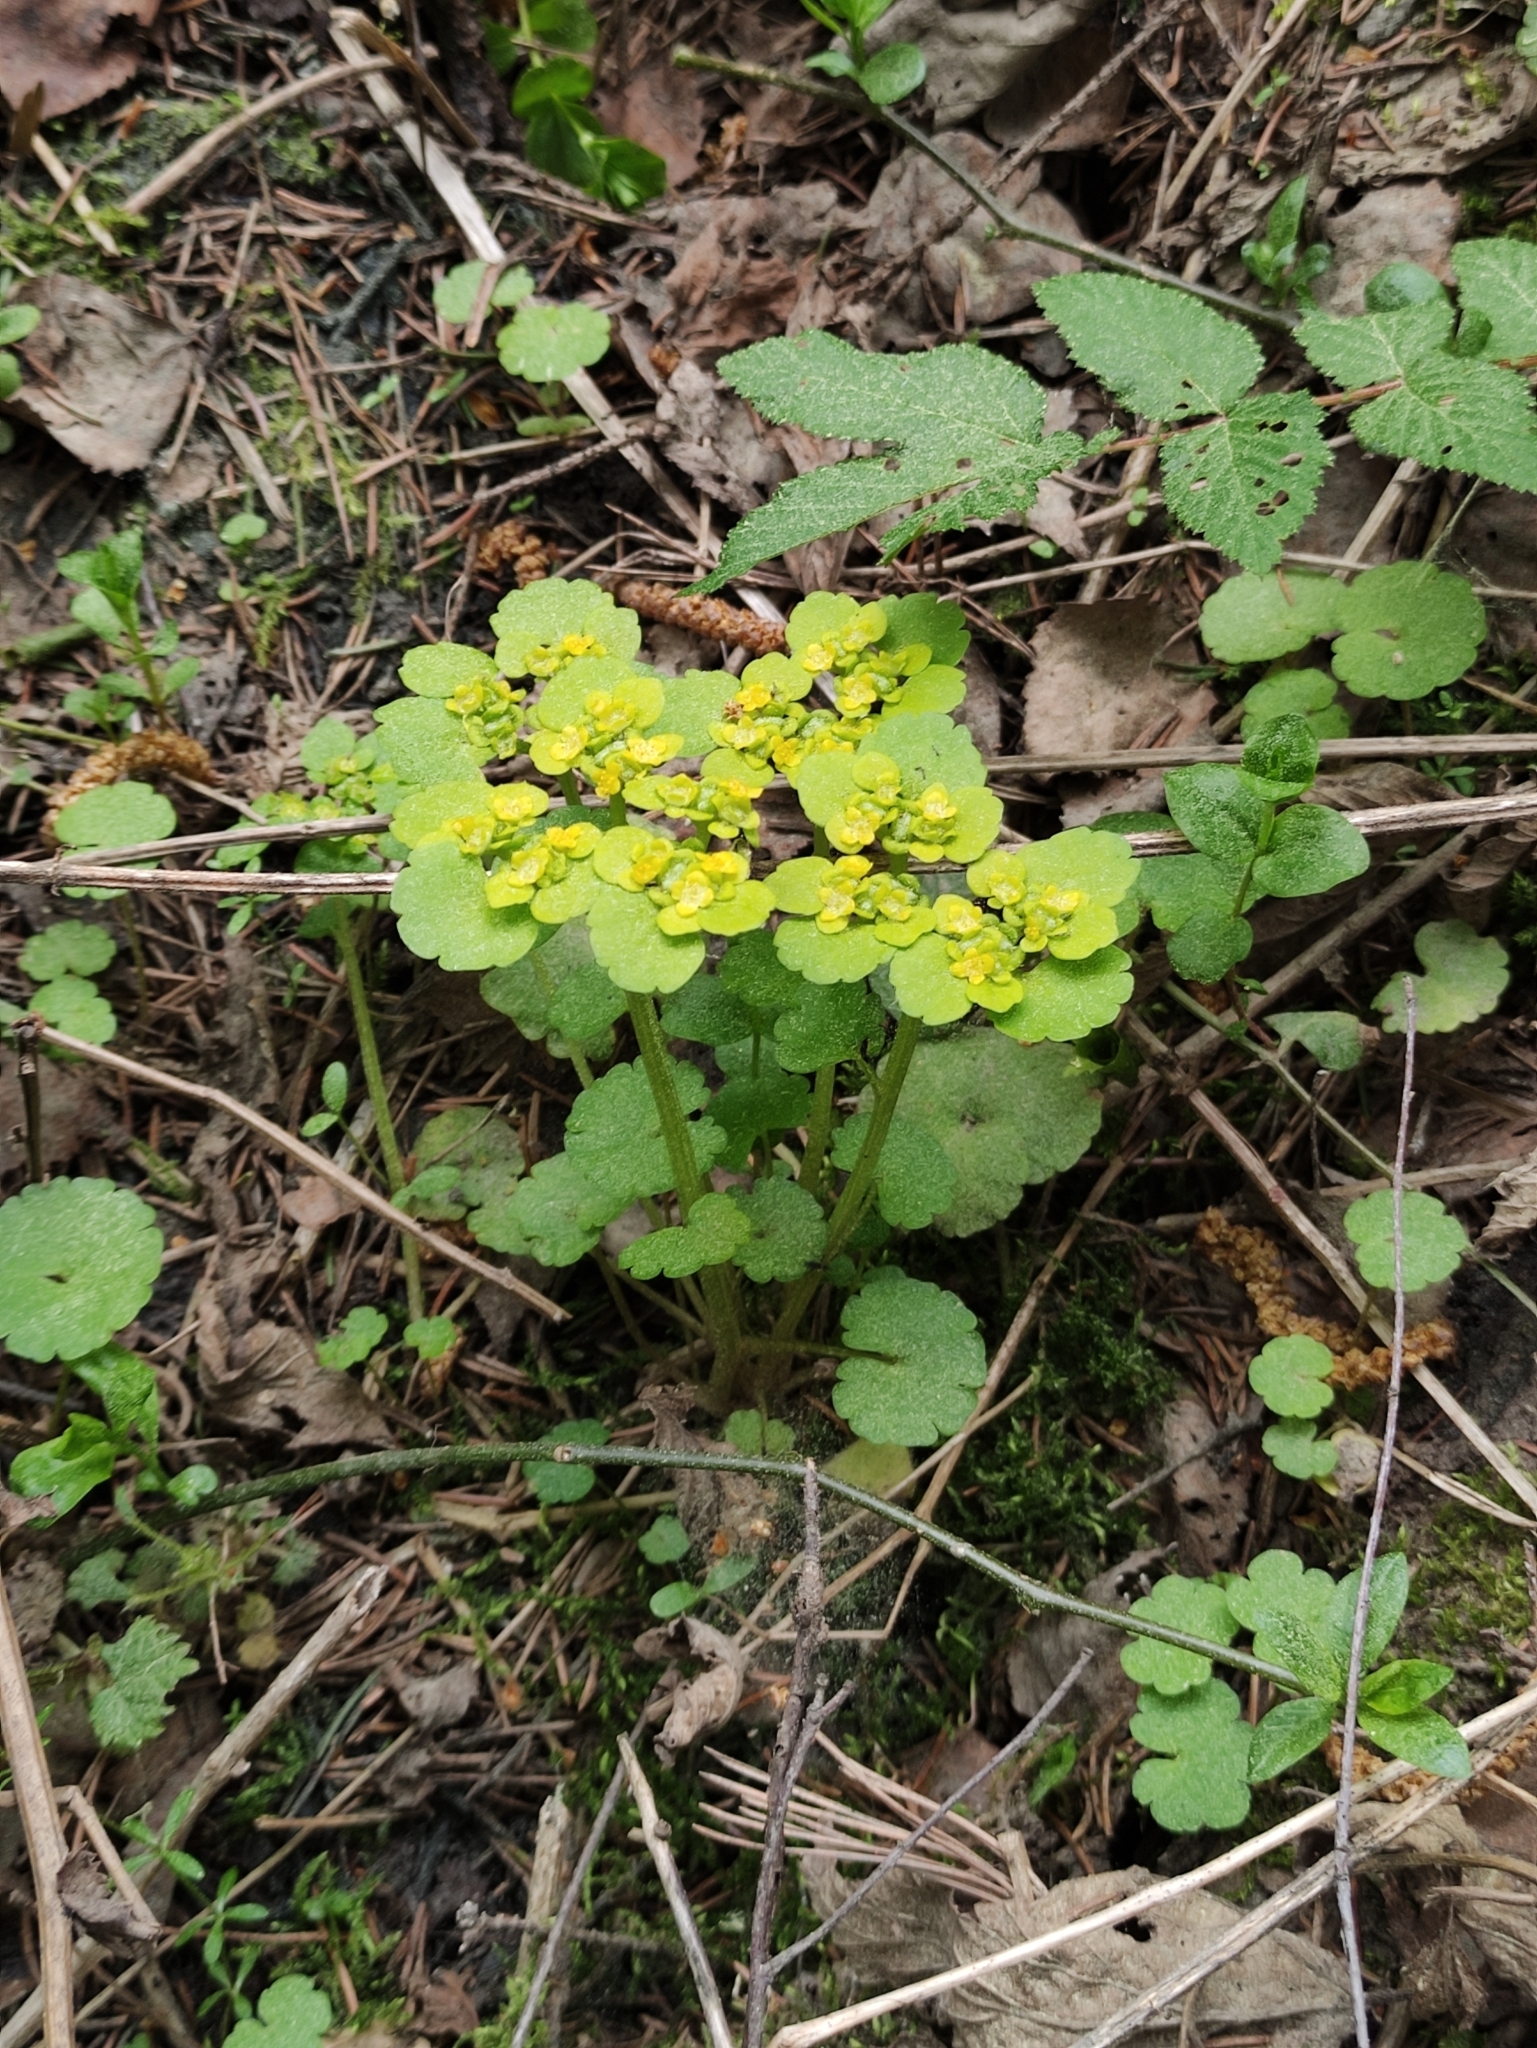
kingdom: Plantae
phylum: Tracheophyta
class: Magnoliopsida
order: Saxifragales
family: Saxifragaceae
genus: Chrysosplenium
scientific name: Chrysosplenium alternifolium
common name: Alternate-leaved golden-saxifrage
